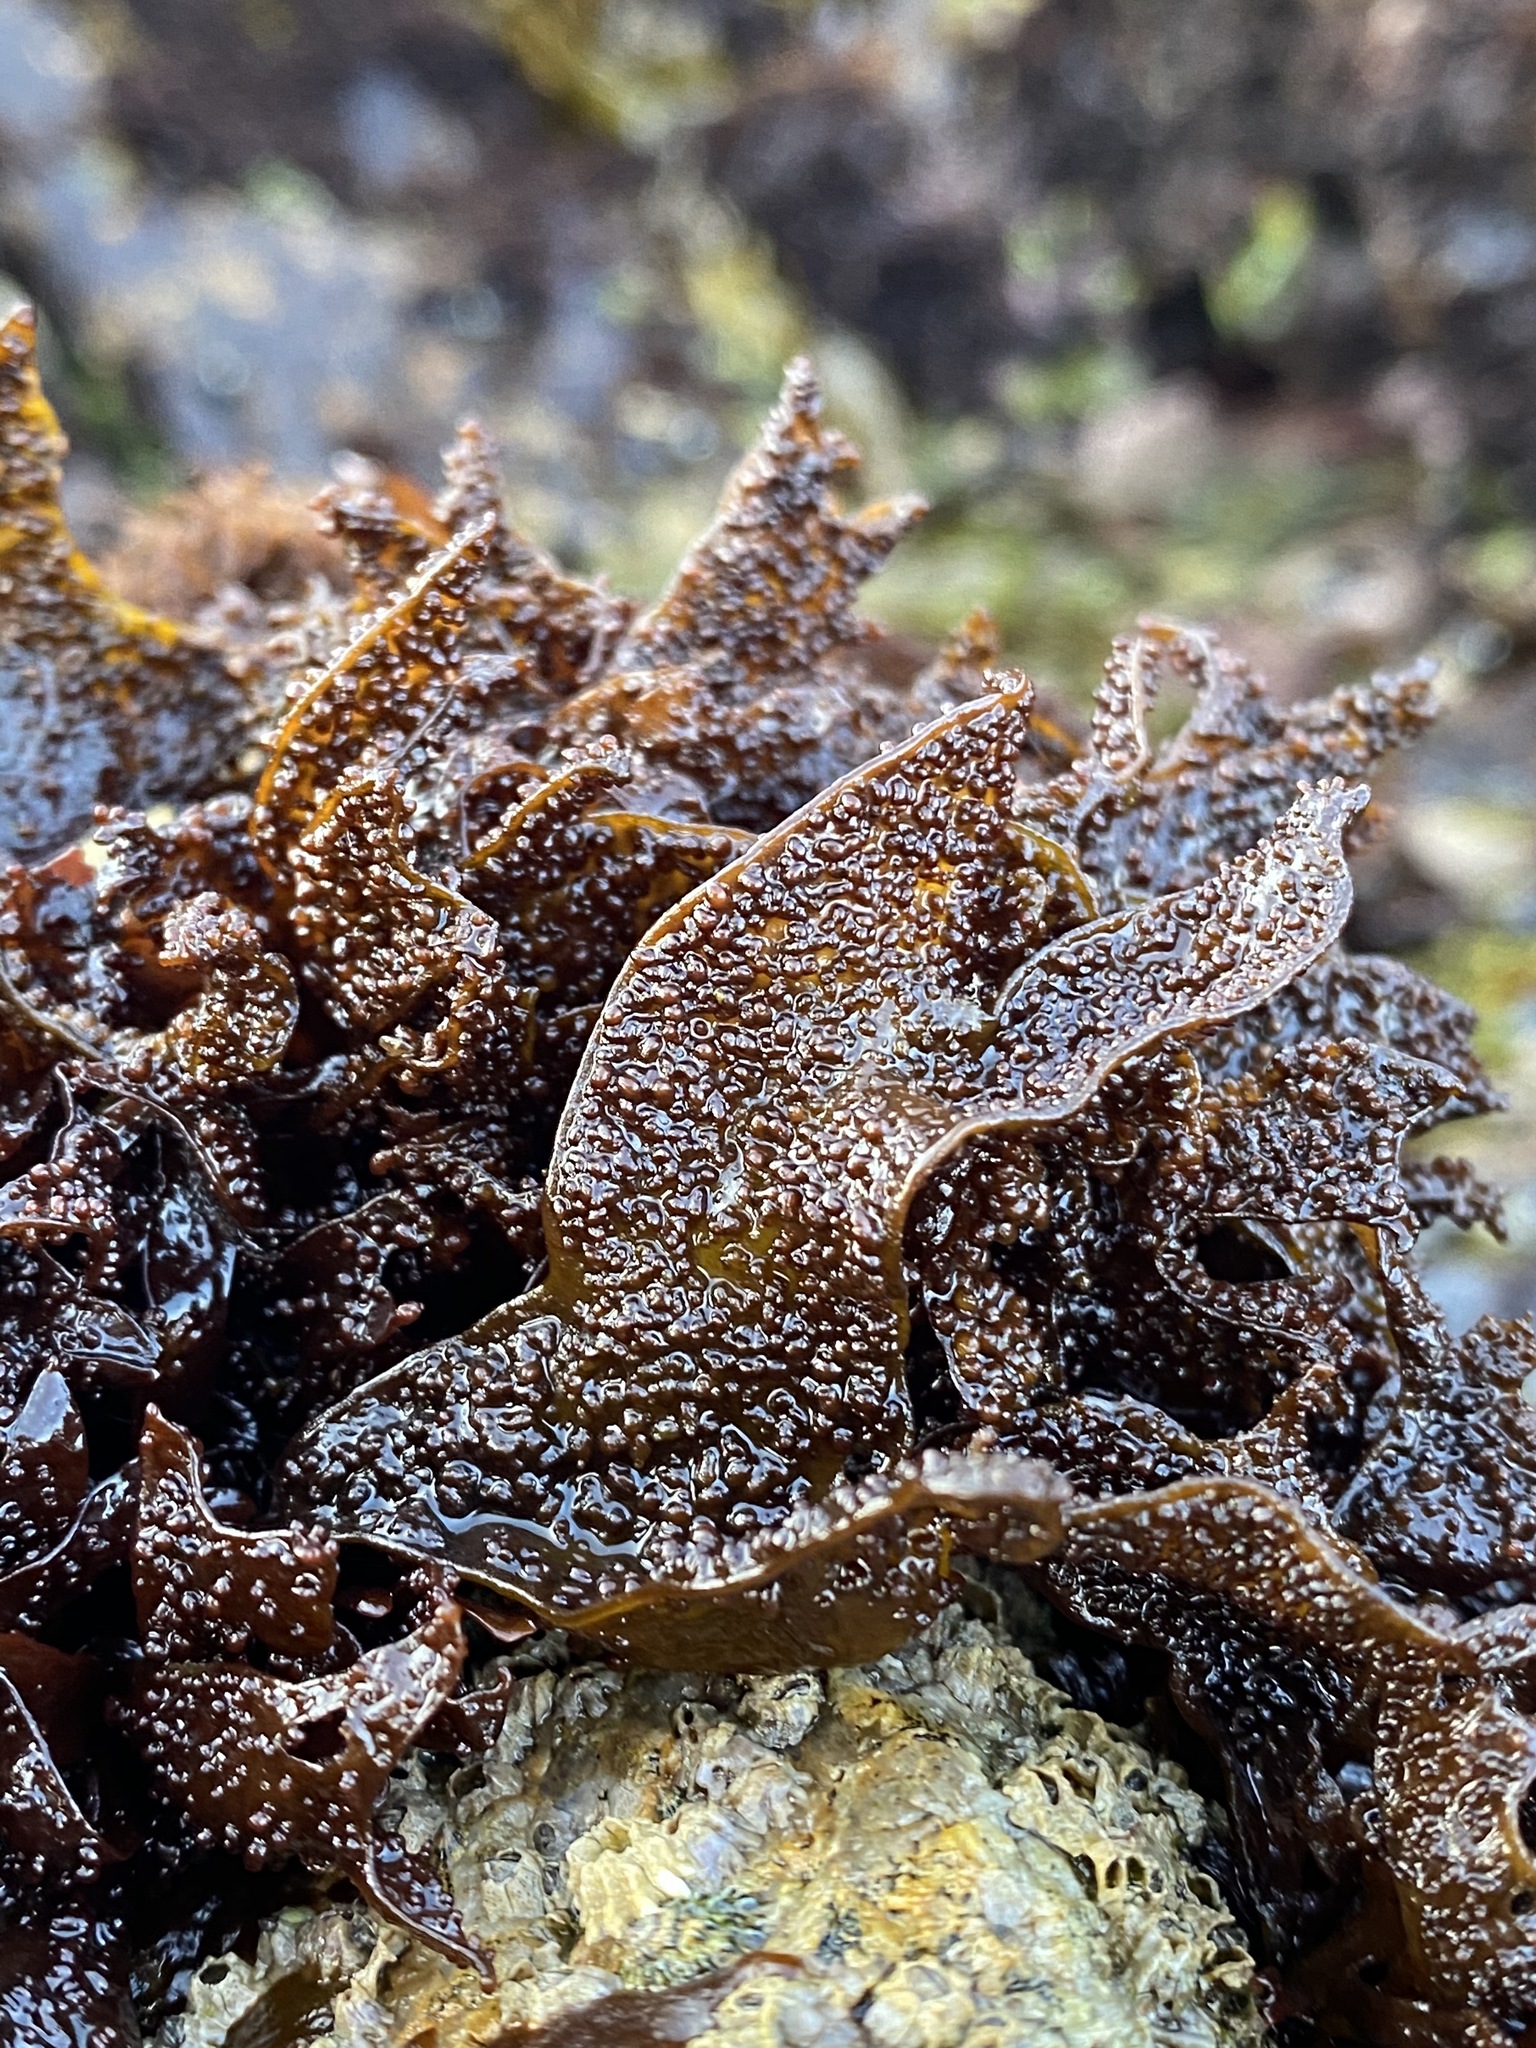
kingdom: Plantae
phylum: Rhodophyta
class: Florideophyceae
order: Gigartinales
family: Phyllophoraceae
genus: Mastocarpus
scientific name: Mastocarpus papillatus
